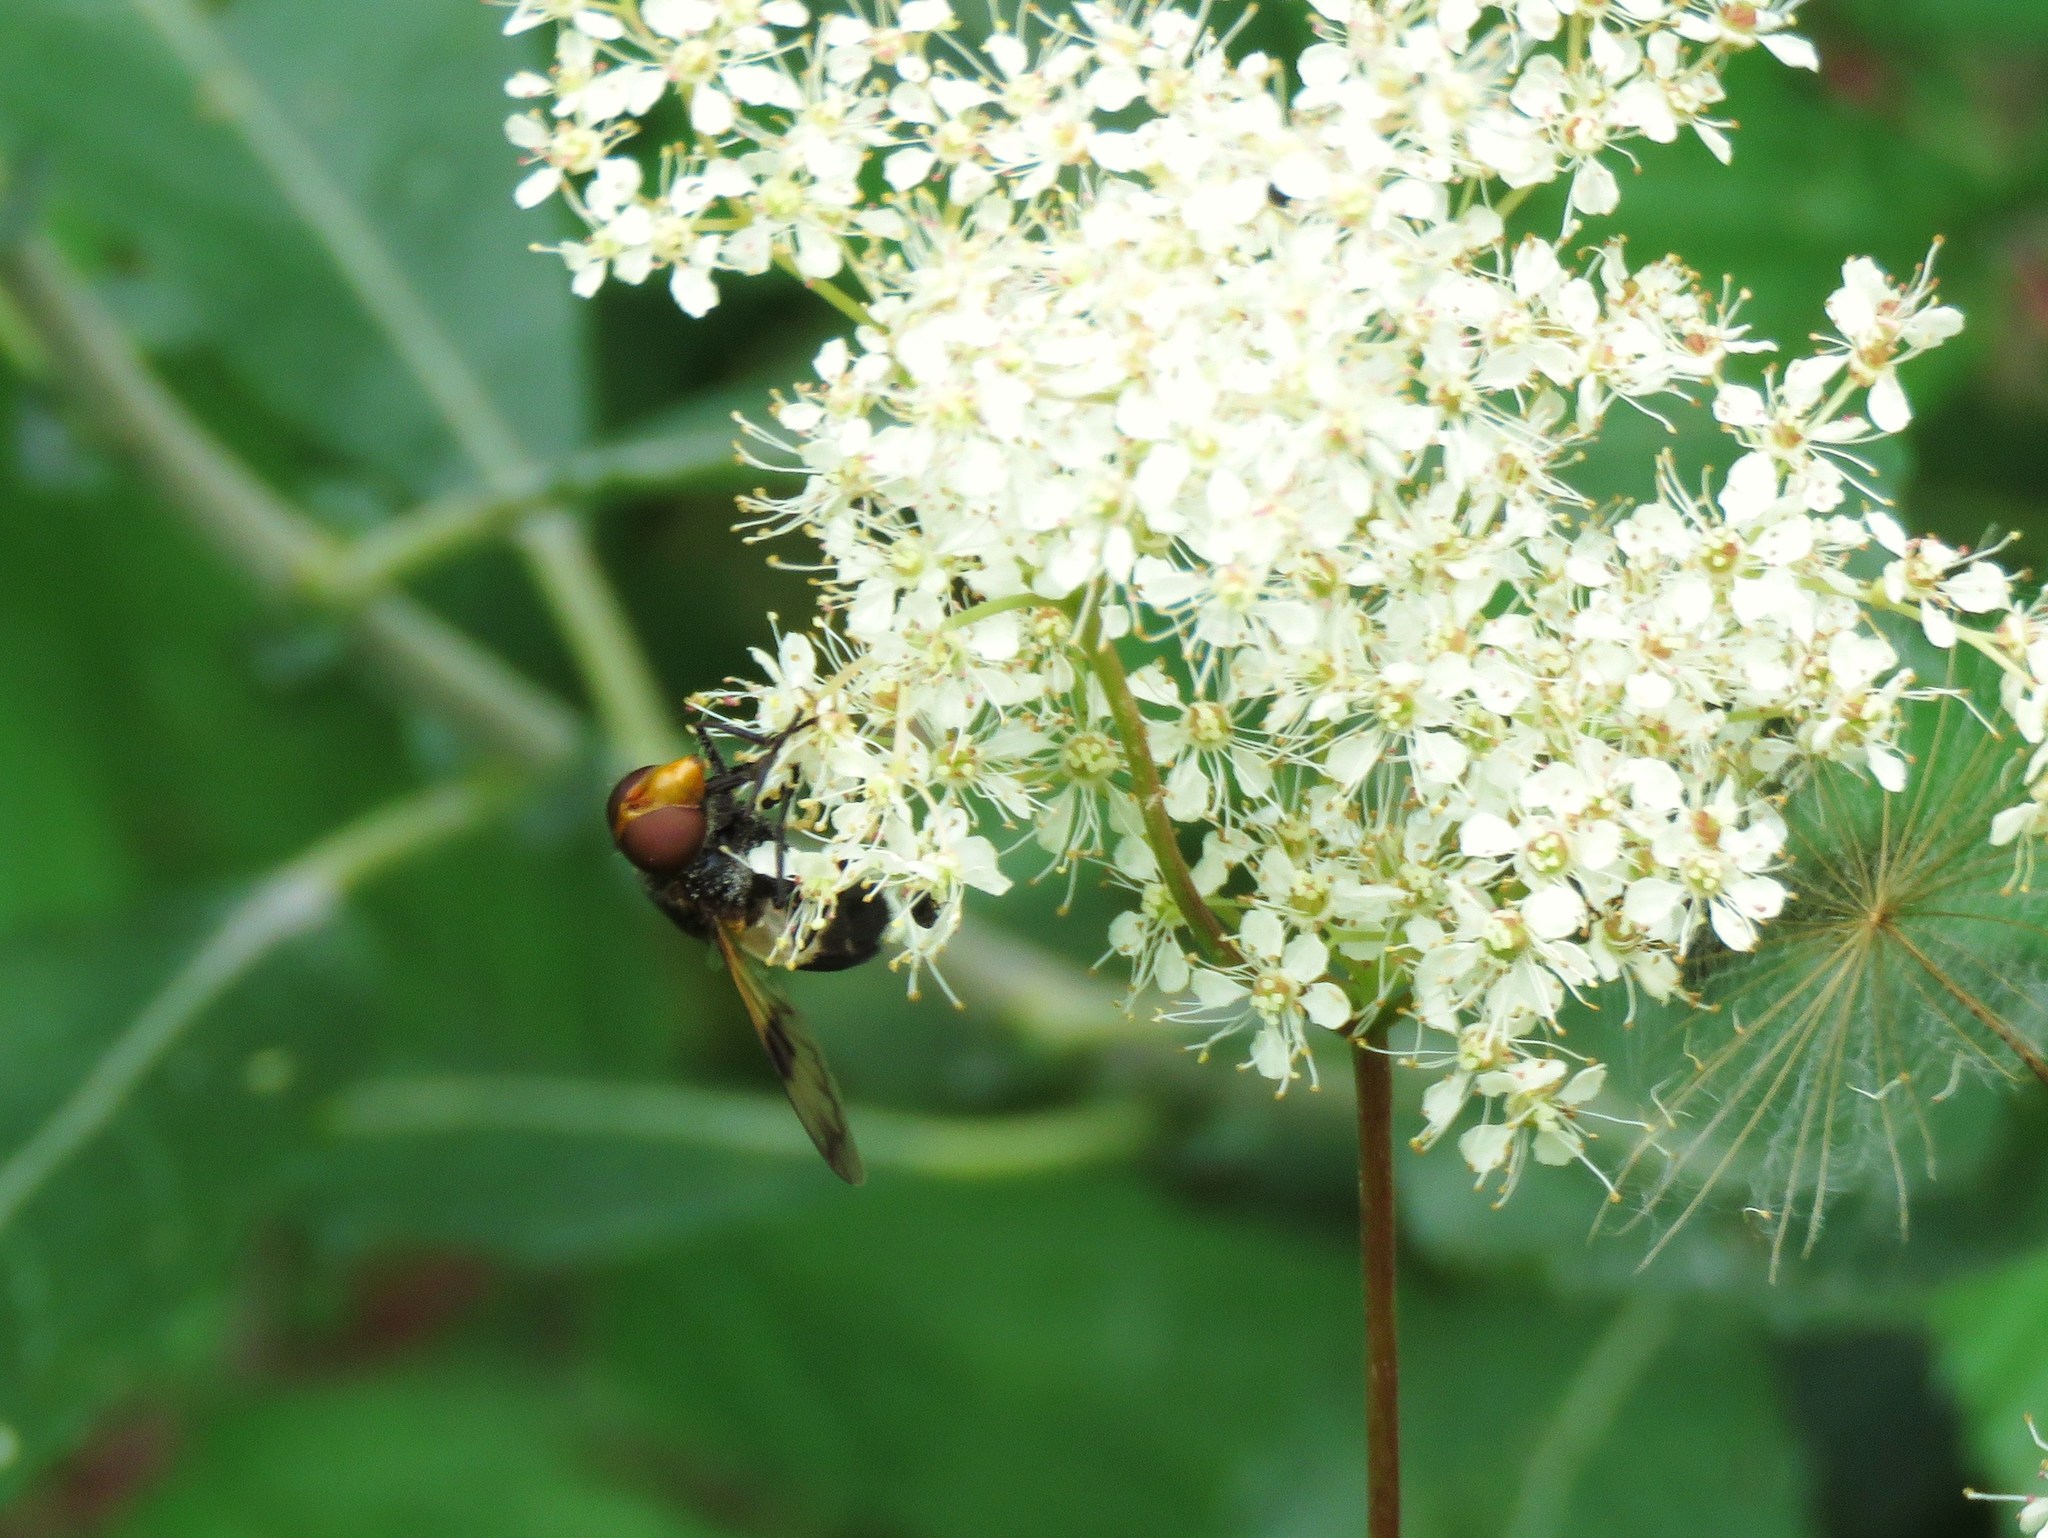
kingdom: Animalia
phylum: Arthropoda
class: Insecta
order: Diptera
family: Syrphidae
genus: Volucella
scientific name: Volucella pellucens
